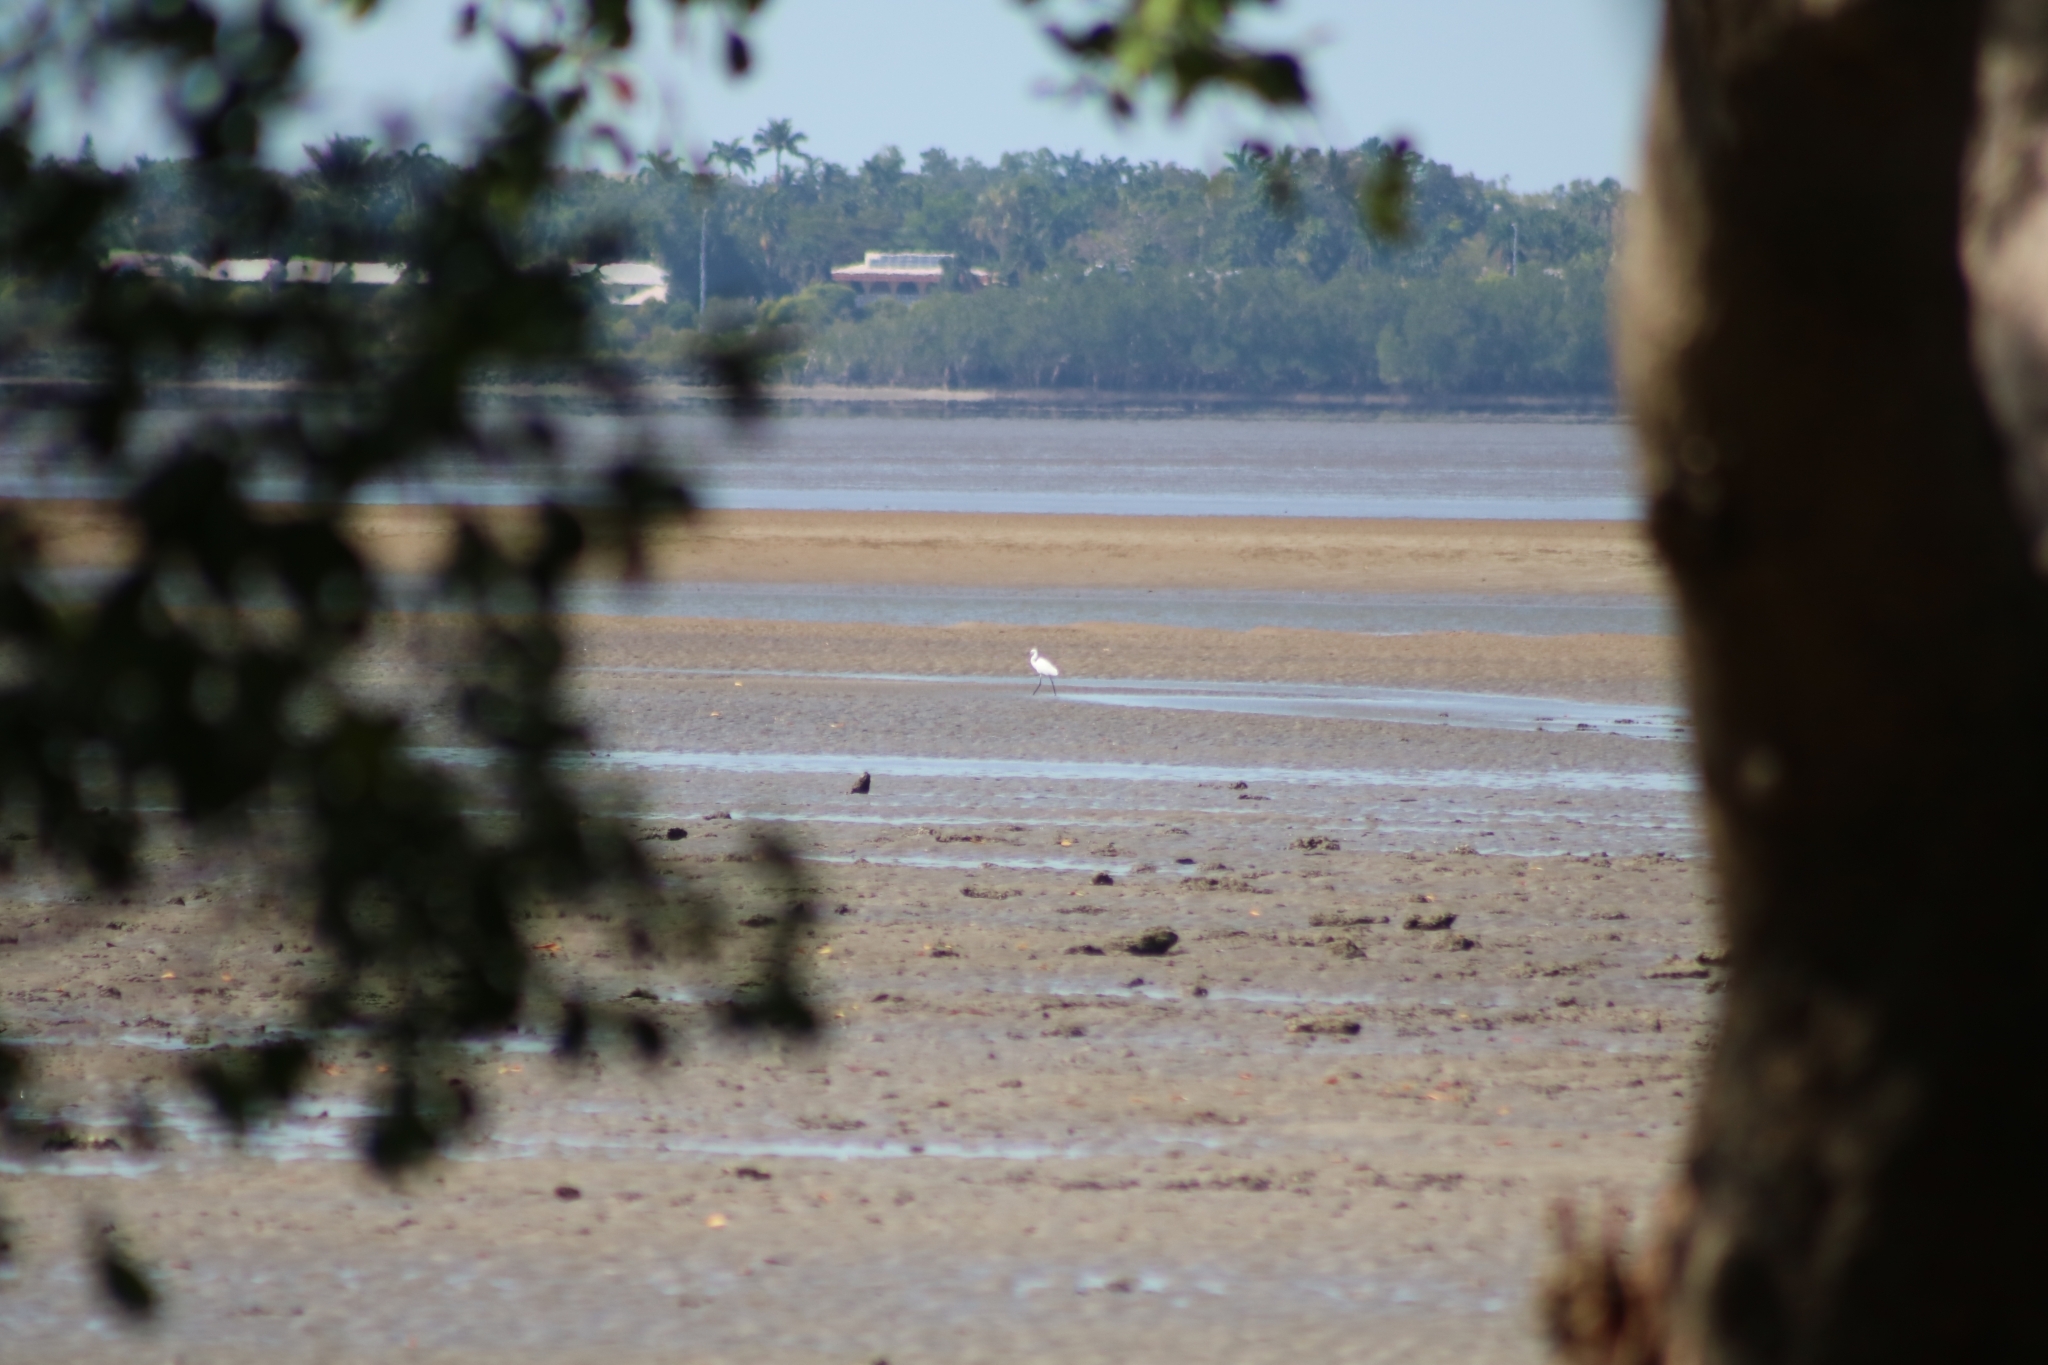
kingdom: Animalia
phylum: Chordata
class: Aves
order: Pelecaniformes
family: Ardeidae
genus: Egretta
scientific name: Egretta garzetta
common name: Little egret
